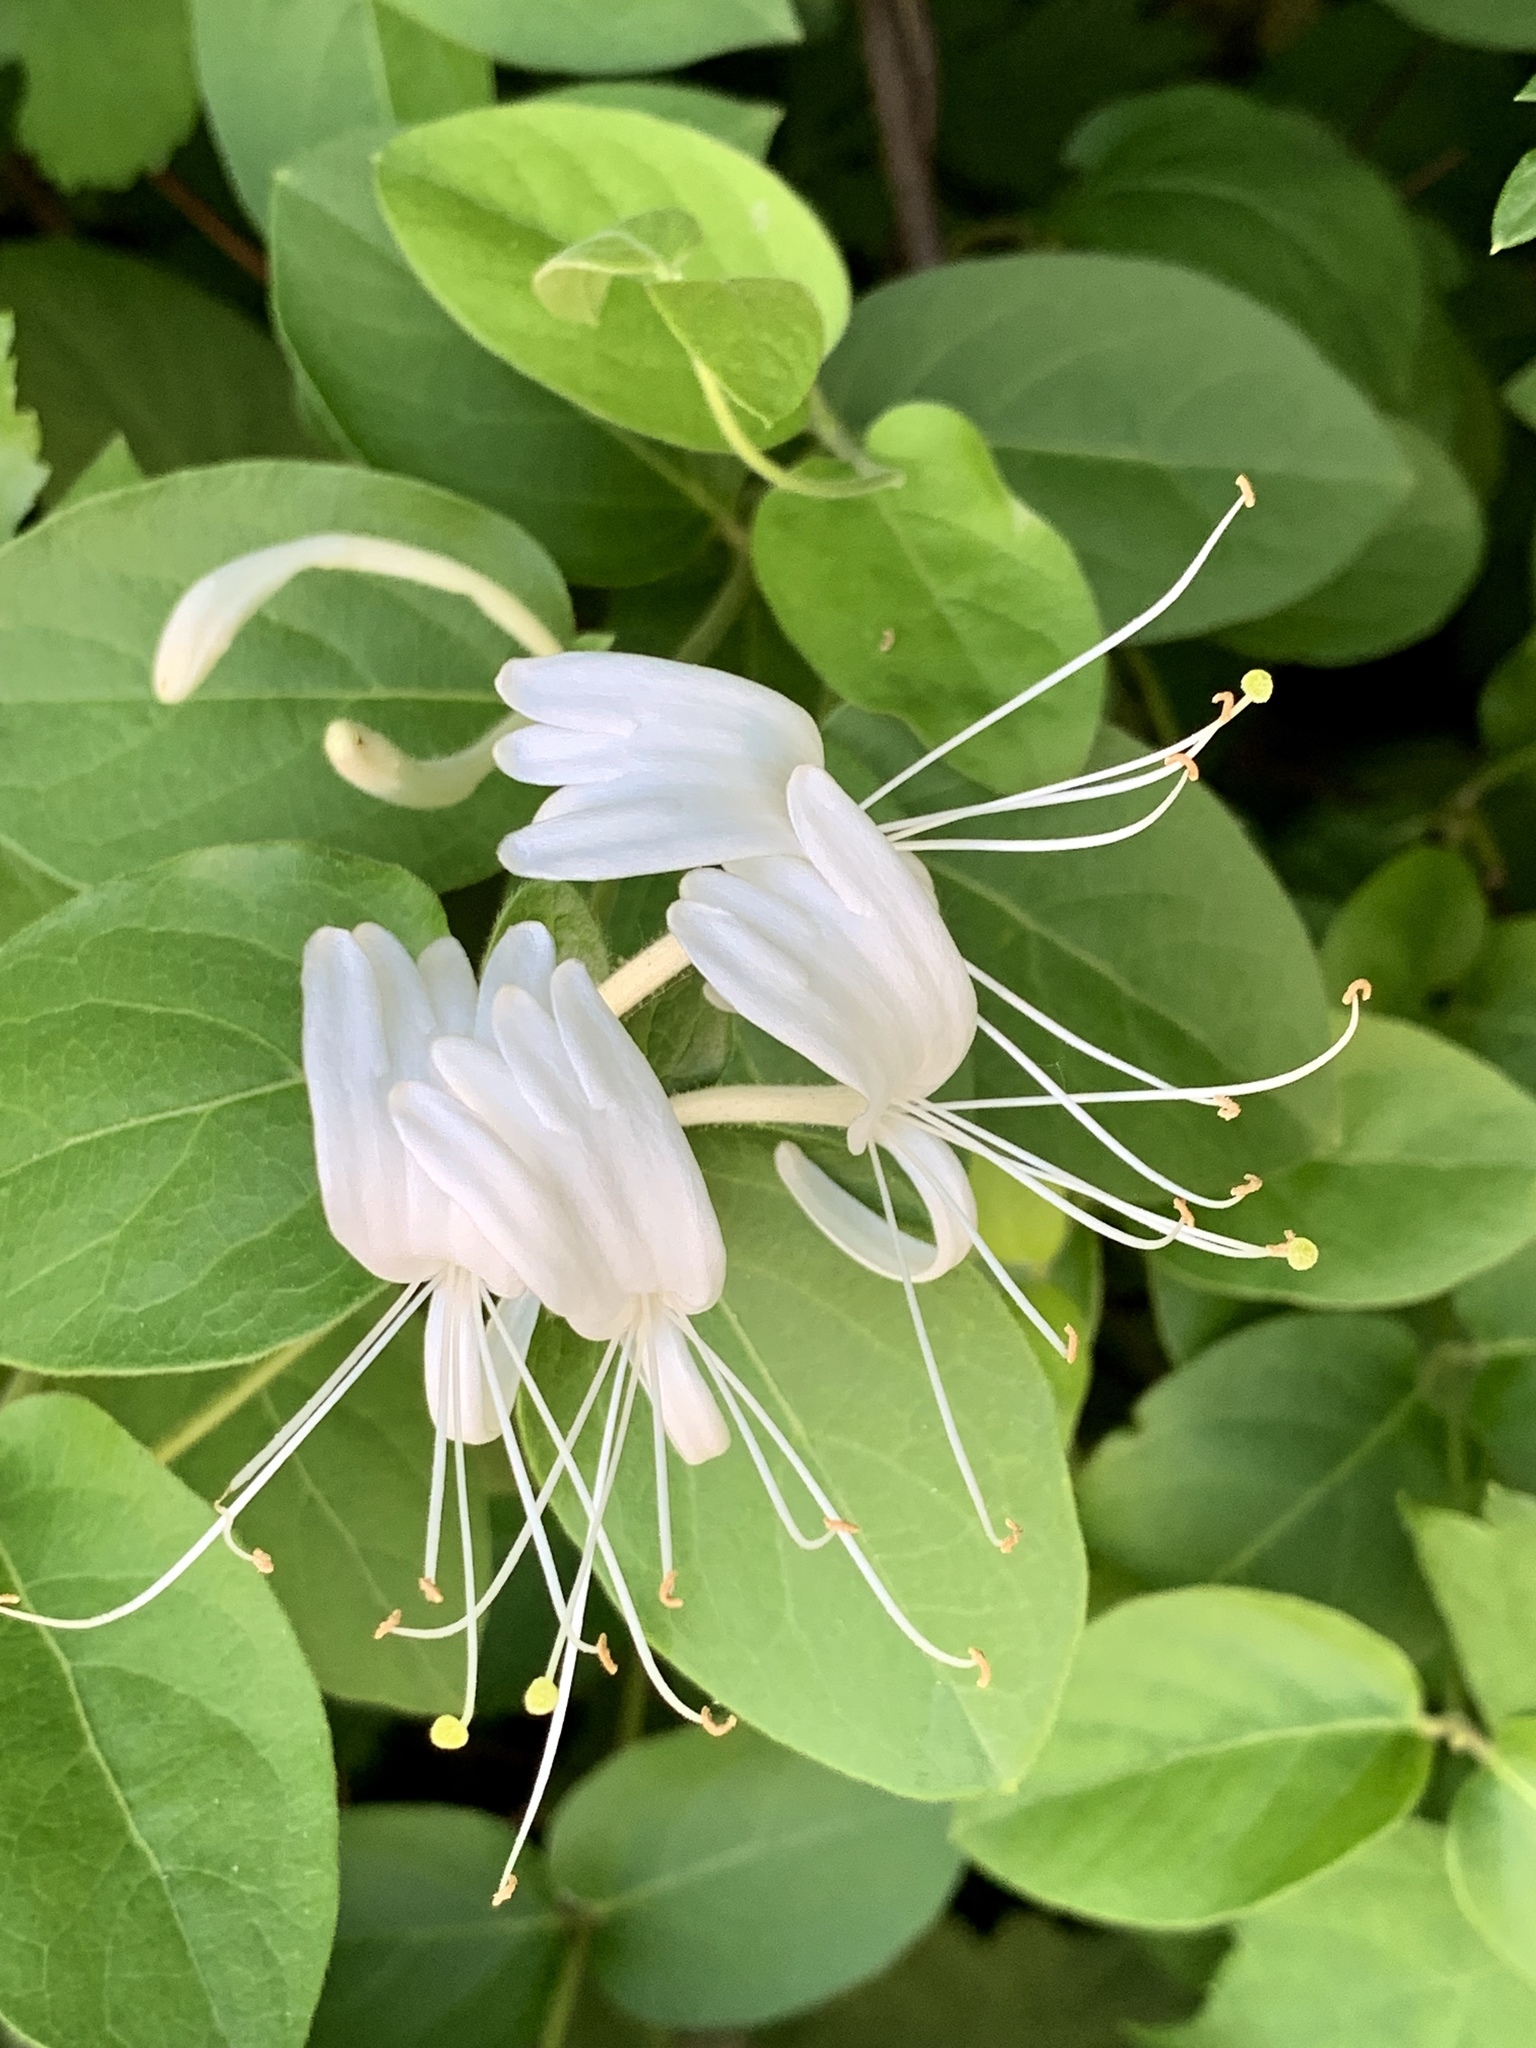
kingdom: Plantae
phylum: Tracheophyta
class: Magnoliopsida
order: Dipsacales
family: Caprifoliaceae
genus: Lonicera
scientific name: Lonicera japonica
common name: Japanese honeysuckle
